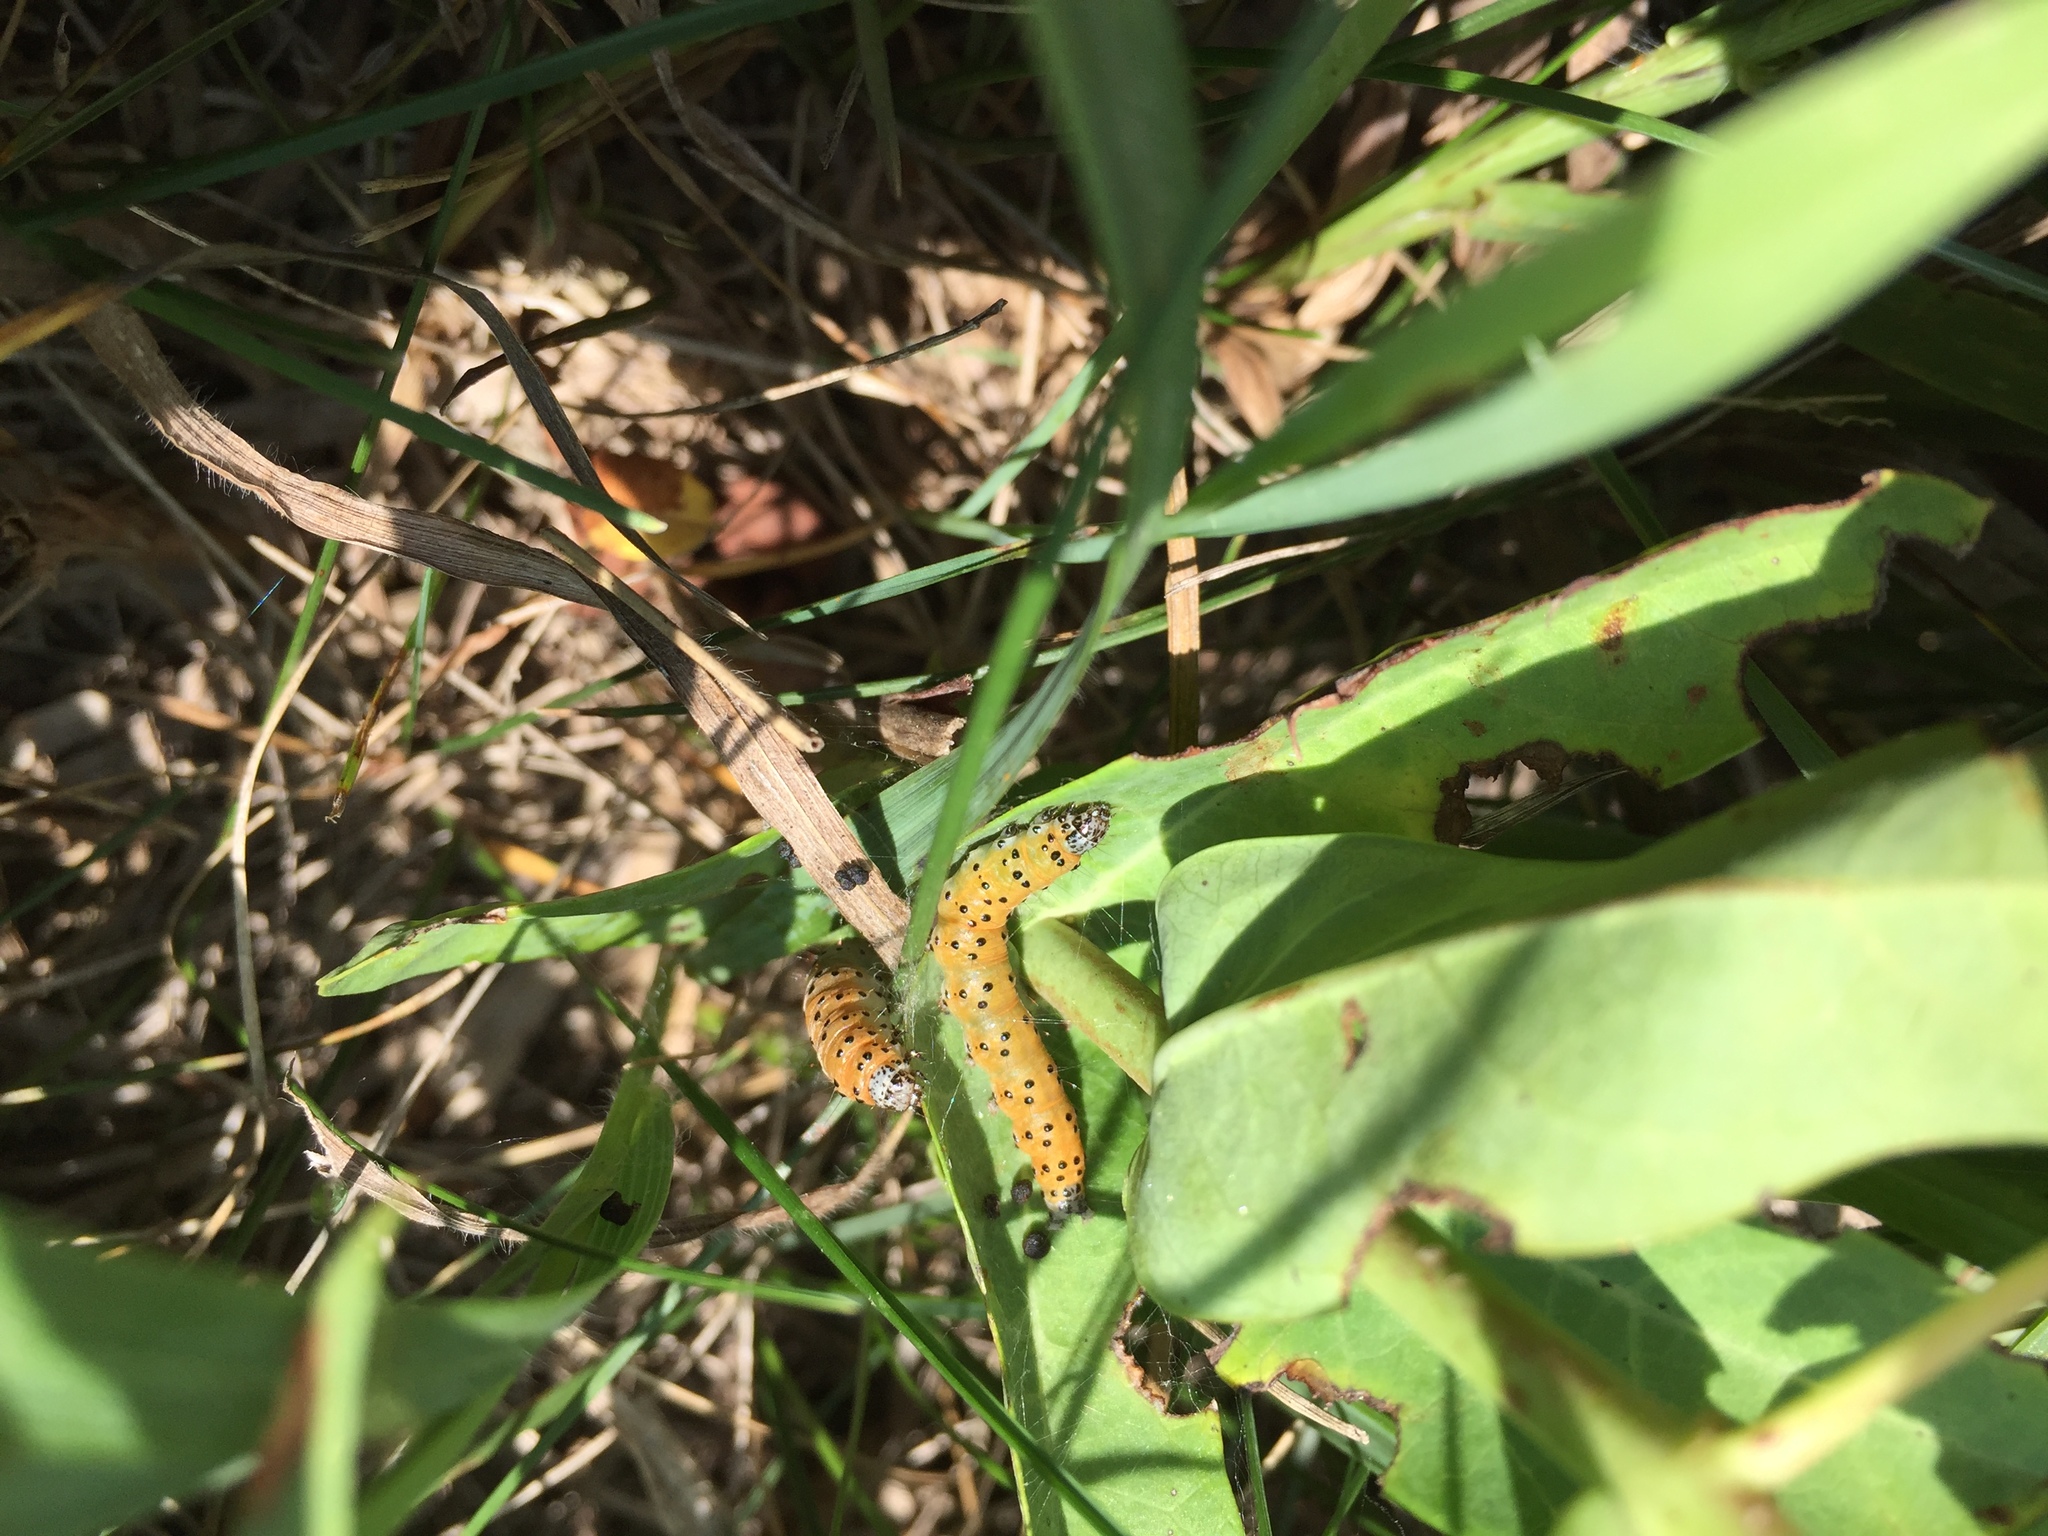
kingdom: Animalia
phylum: Arthropoda
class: Insecta
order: Lepidoptera
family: Crambidae
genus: Saucrobotys
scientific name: Saucrobotys futilalis
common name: Dogbane saucrobotys moth
